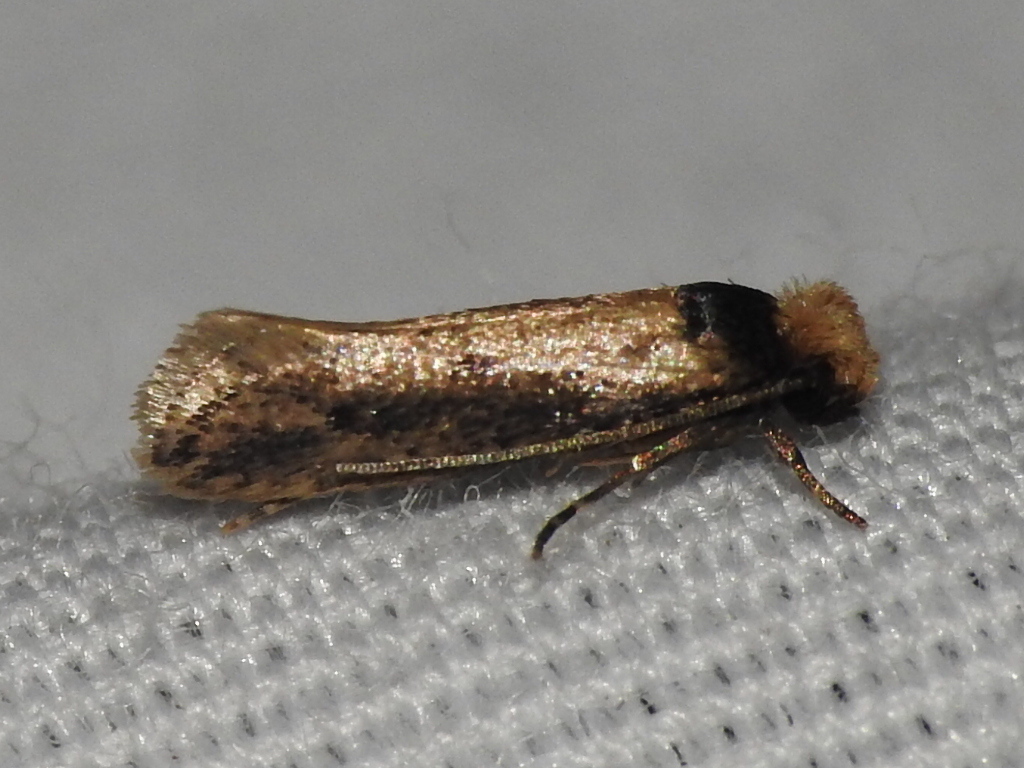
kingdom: Animalia
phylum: Arthropoda
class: Insecta
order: Lepidoptera
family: Tineidae
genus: Tinea
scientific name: Tinea apicimaculella
